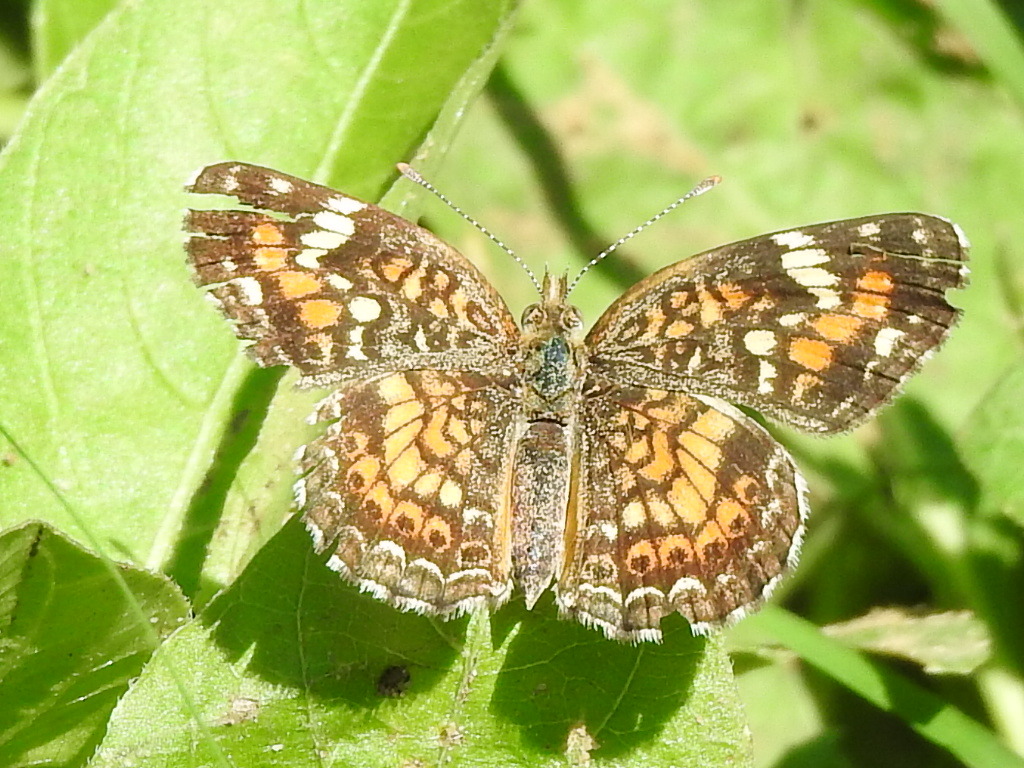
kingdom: Animalia
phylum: Arthropoda
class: Insecta
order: Lepidoptera
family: Nymphalidae
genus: Phyciodes
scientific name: Phyciodes phaon
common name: Phaon crescent
